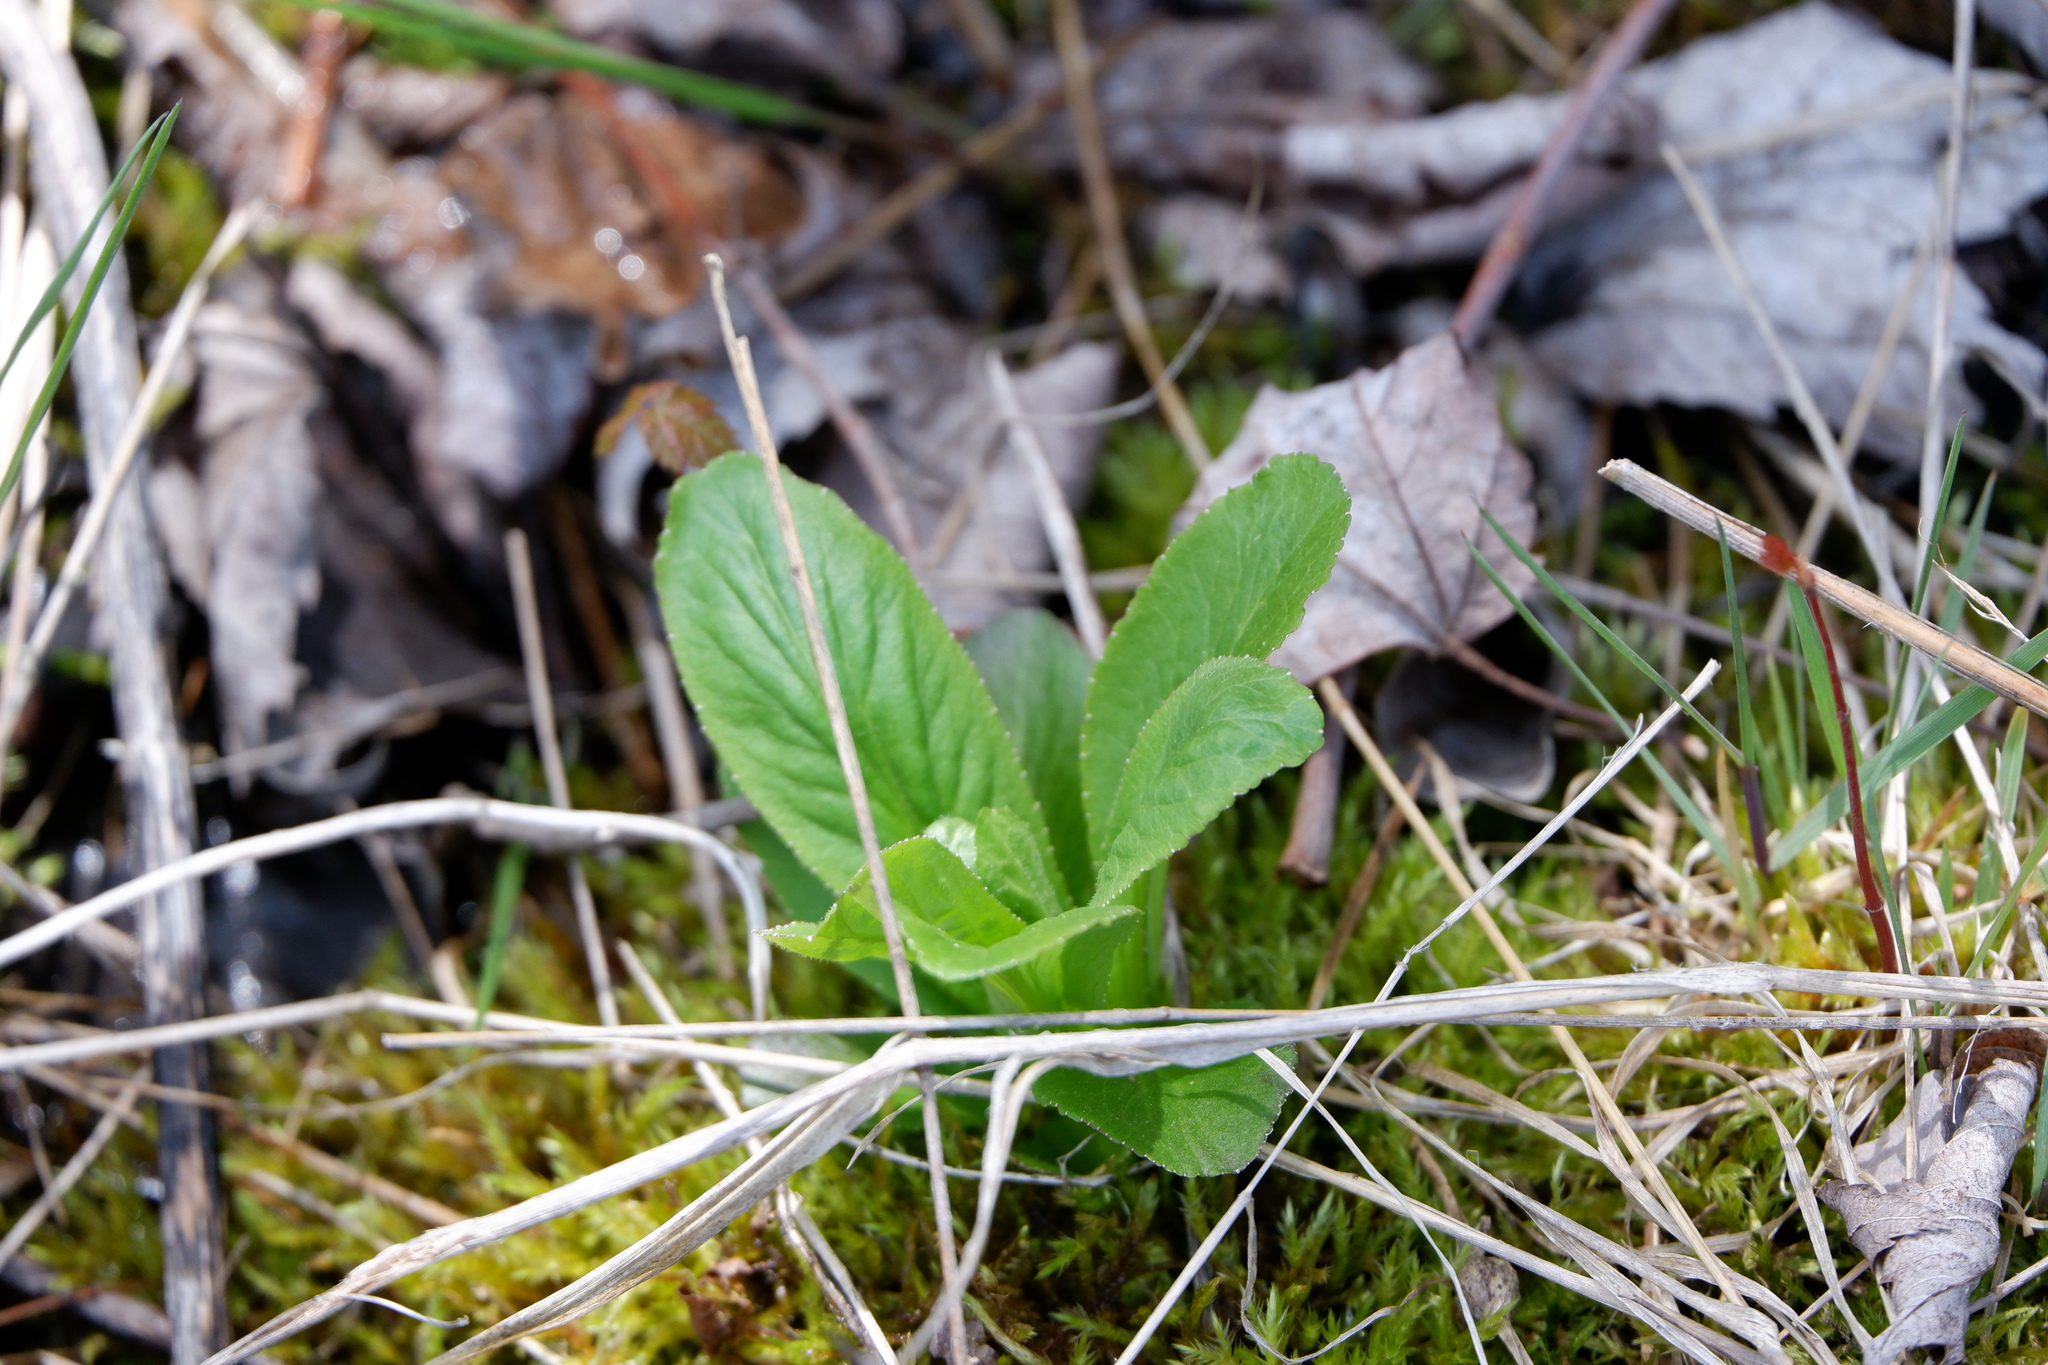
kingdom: Plantae
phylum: Tracheophyta
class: Magnoliopsida
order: Saxifragales
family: Saxifragaceae
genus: Micranthes
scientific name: Micranthes pensylvanica
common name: Marsh saxifrage
